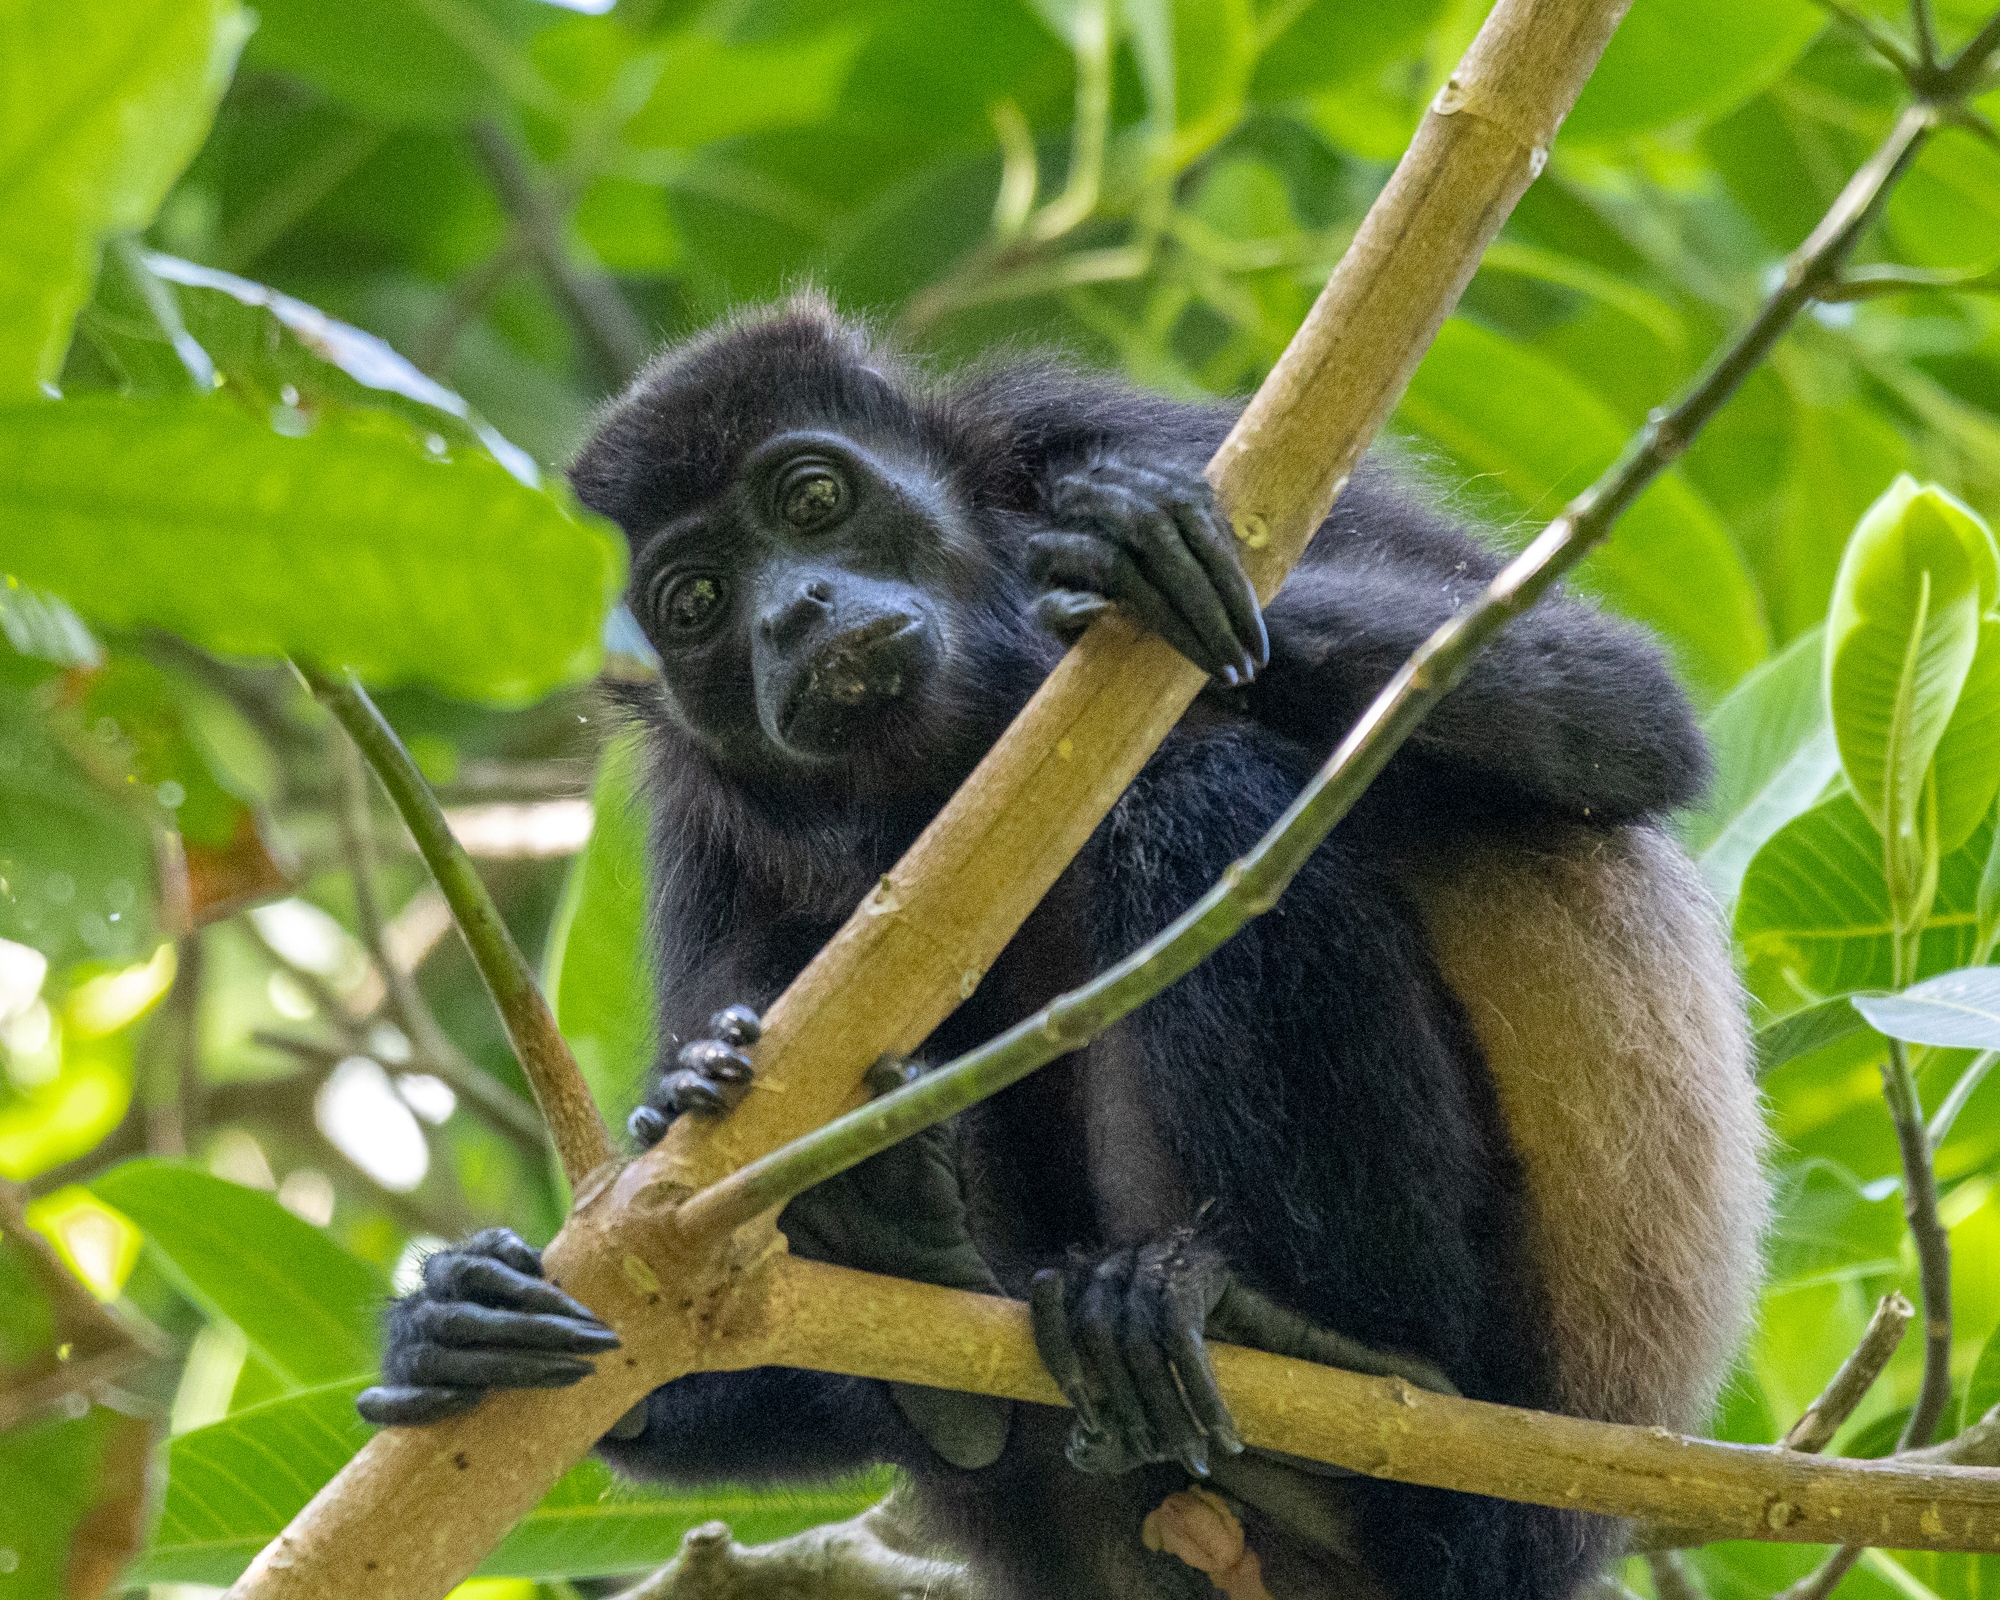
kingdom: Animalia
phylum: Chordata
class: Mammalia
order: Primates
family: Atelidae
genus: Alouatta
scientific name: Alouatta palliata
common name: Mantled howler
